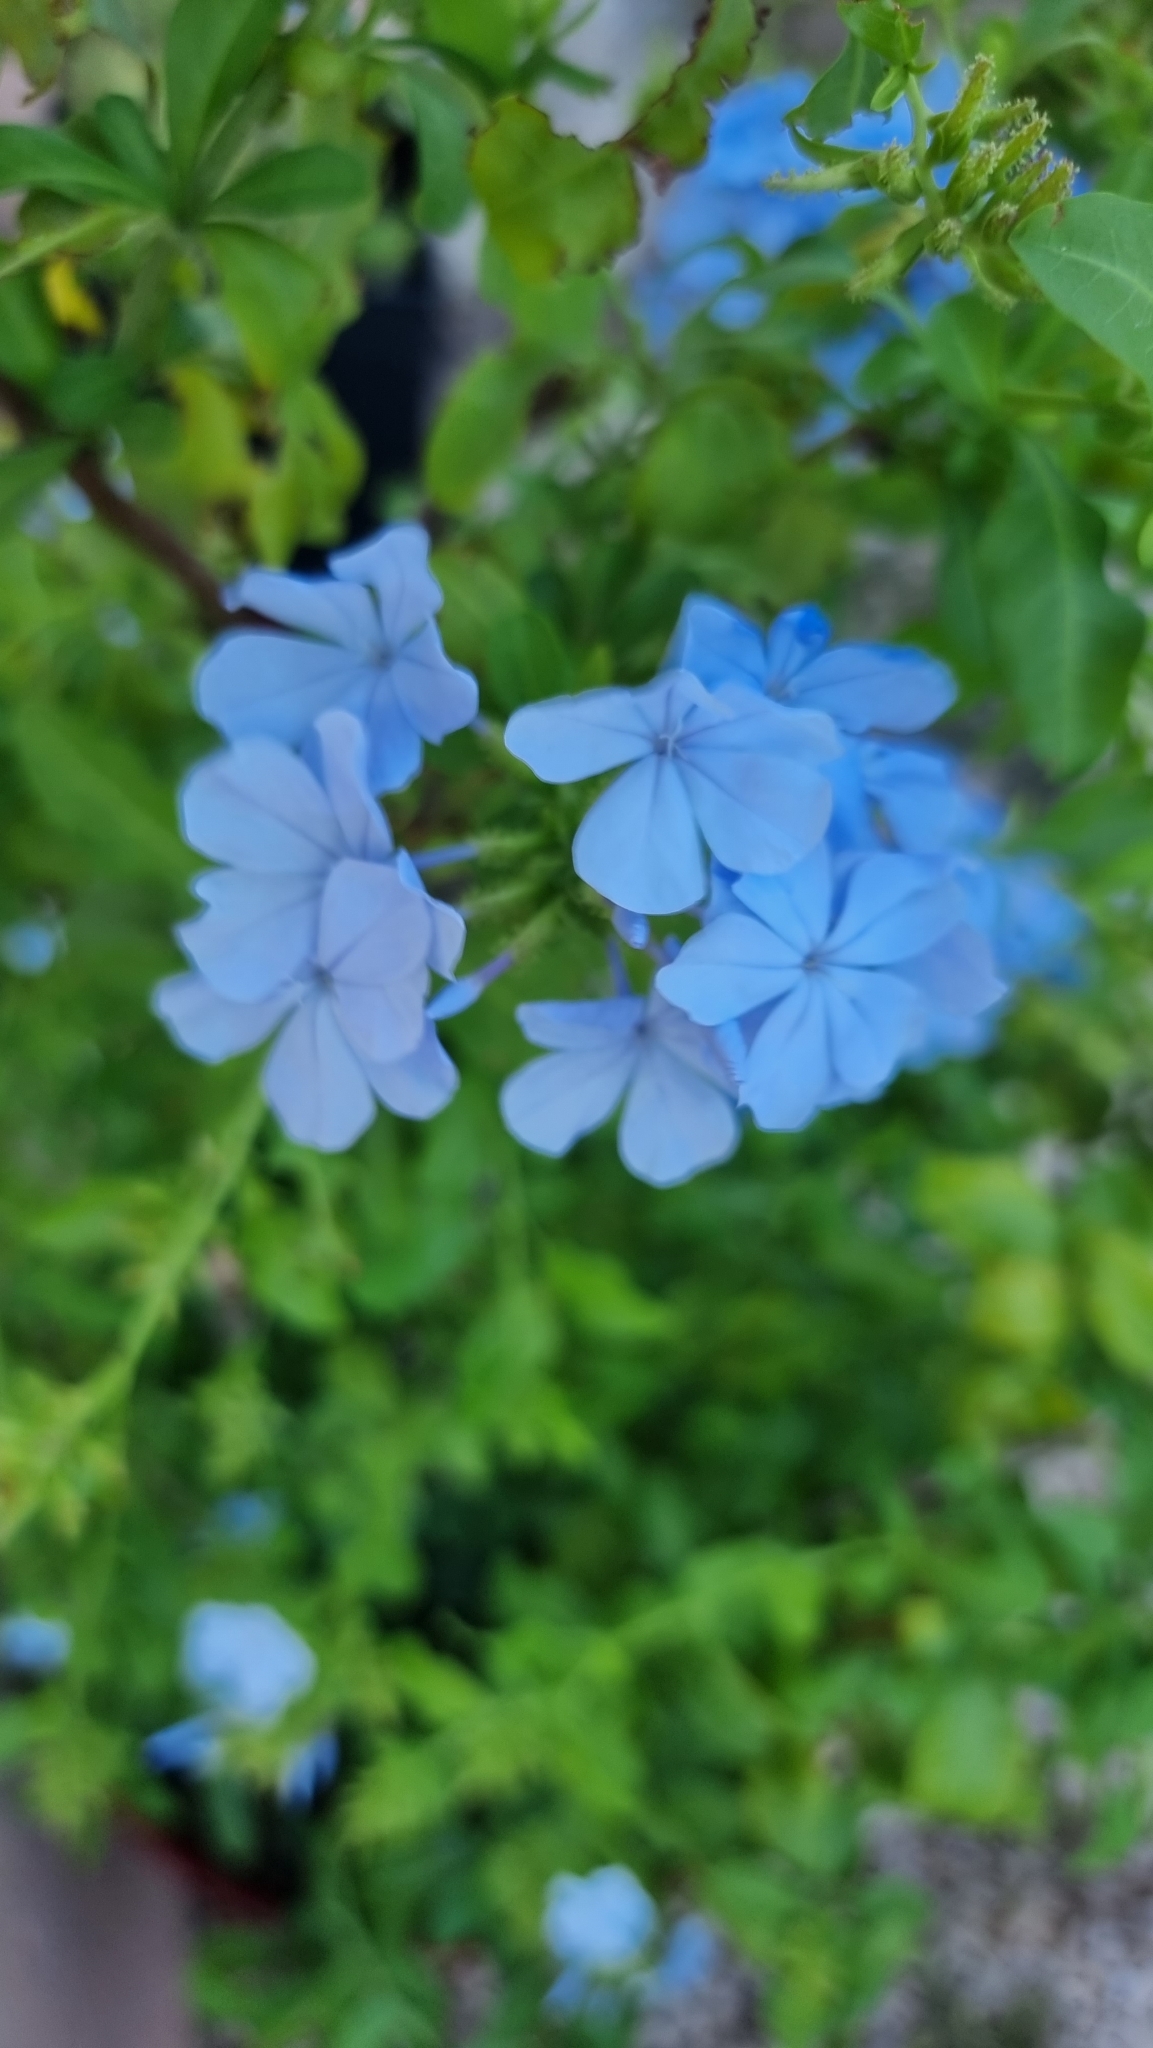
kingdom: Plantae
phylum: Tracheophyta
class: Magnoliopsida
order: Caryophyllales
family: Plumbaginaceae
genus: Plumbago
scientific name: Plumbago auriculata
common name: Cape leadwort
